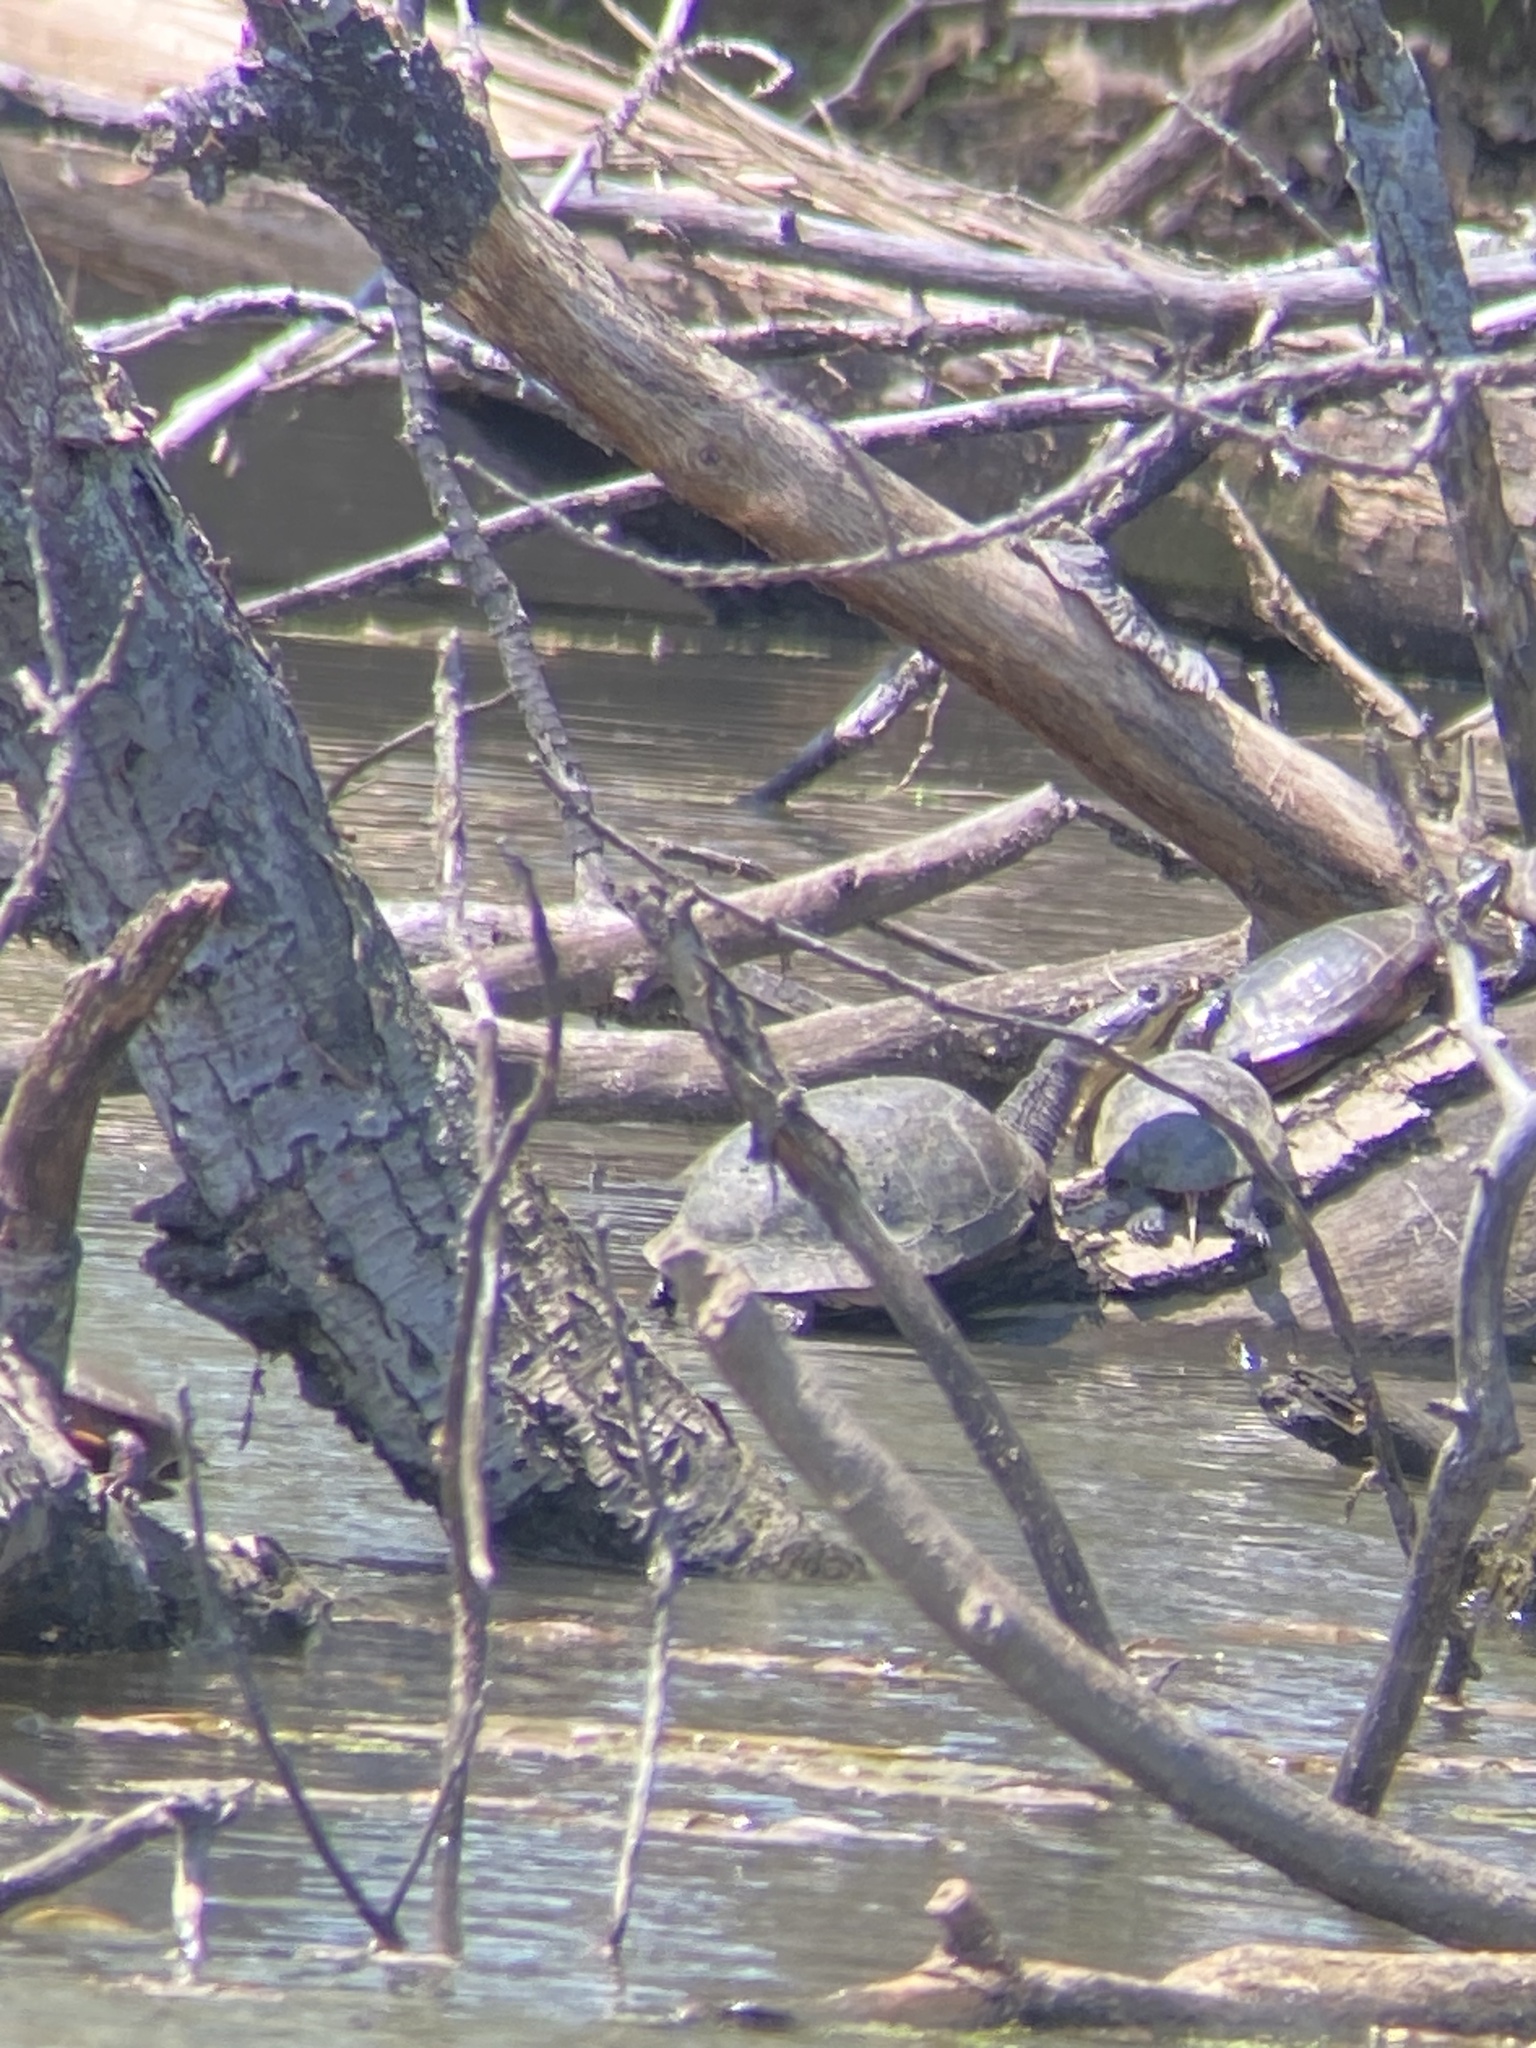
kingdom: Animalia
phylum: Chordata
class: Testudines
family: Emydidae
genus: Emys
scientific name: Emys blandingii
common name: Blanding's turtle
